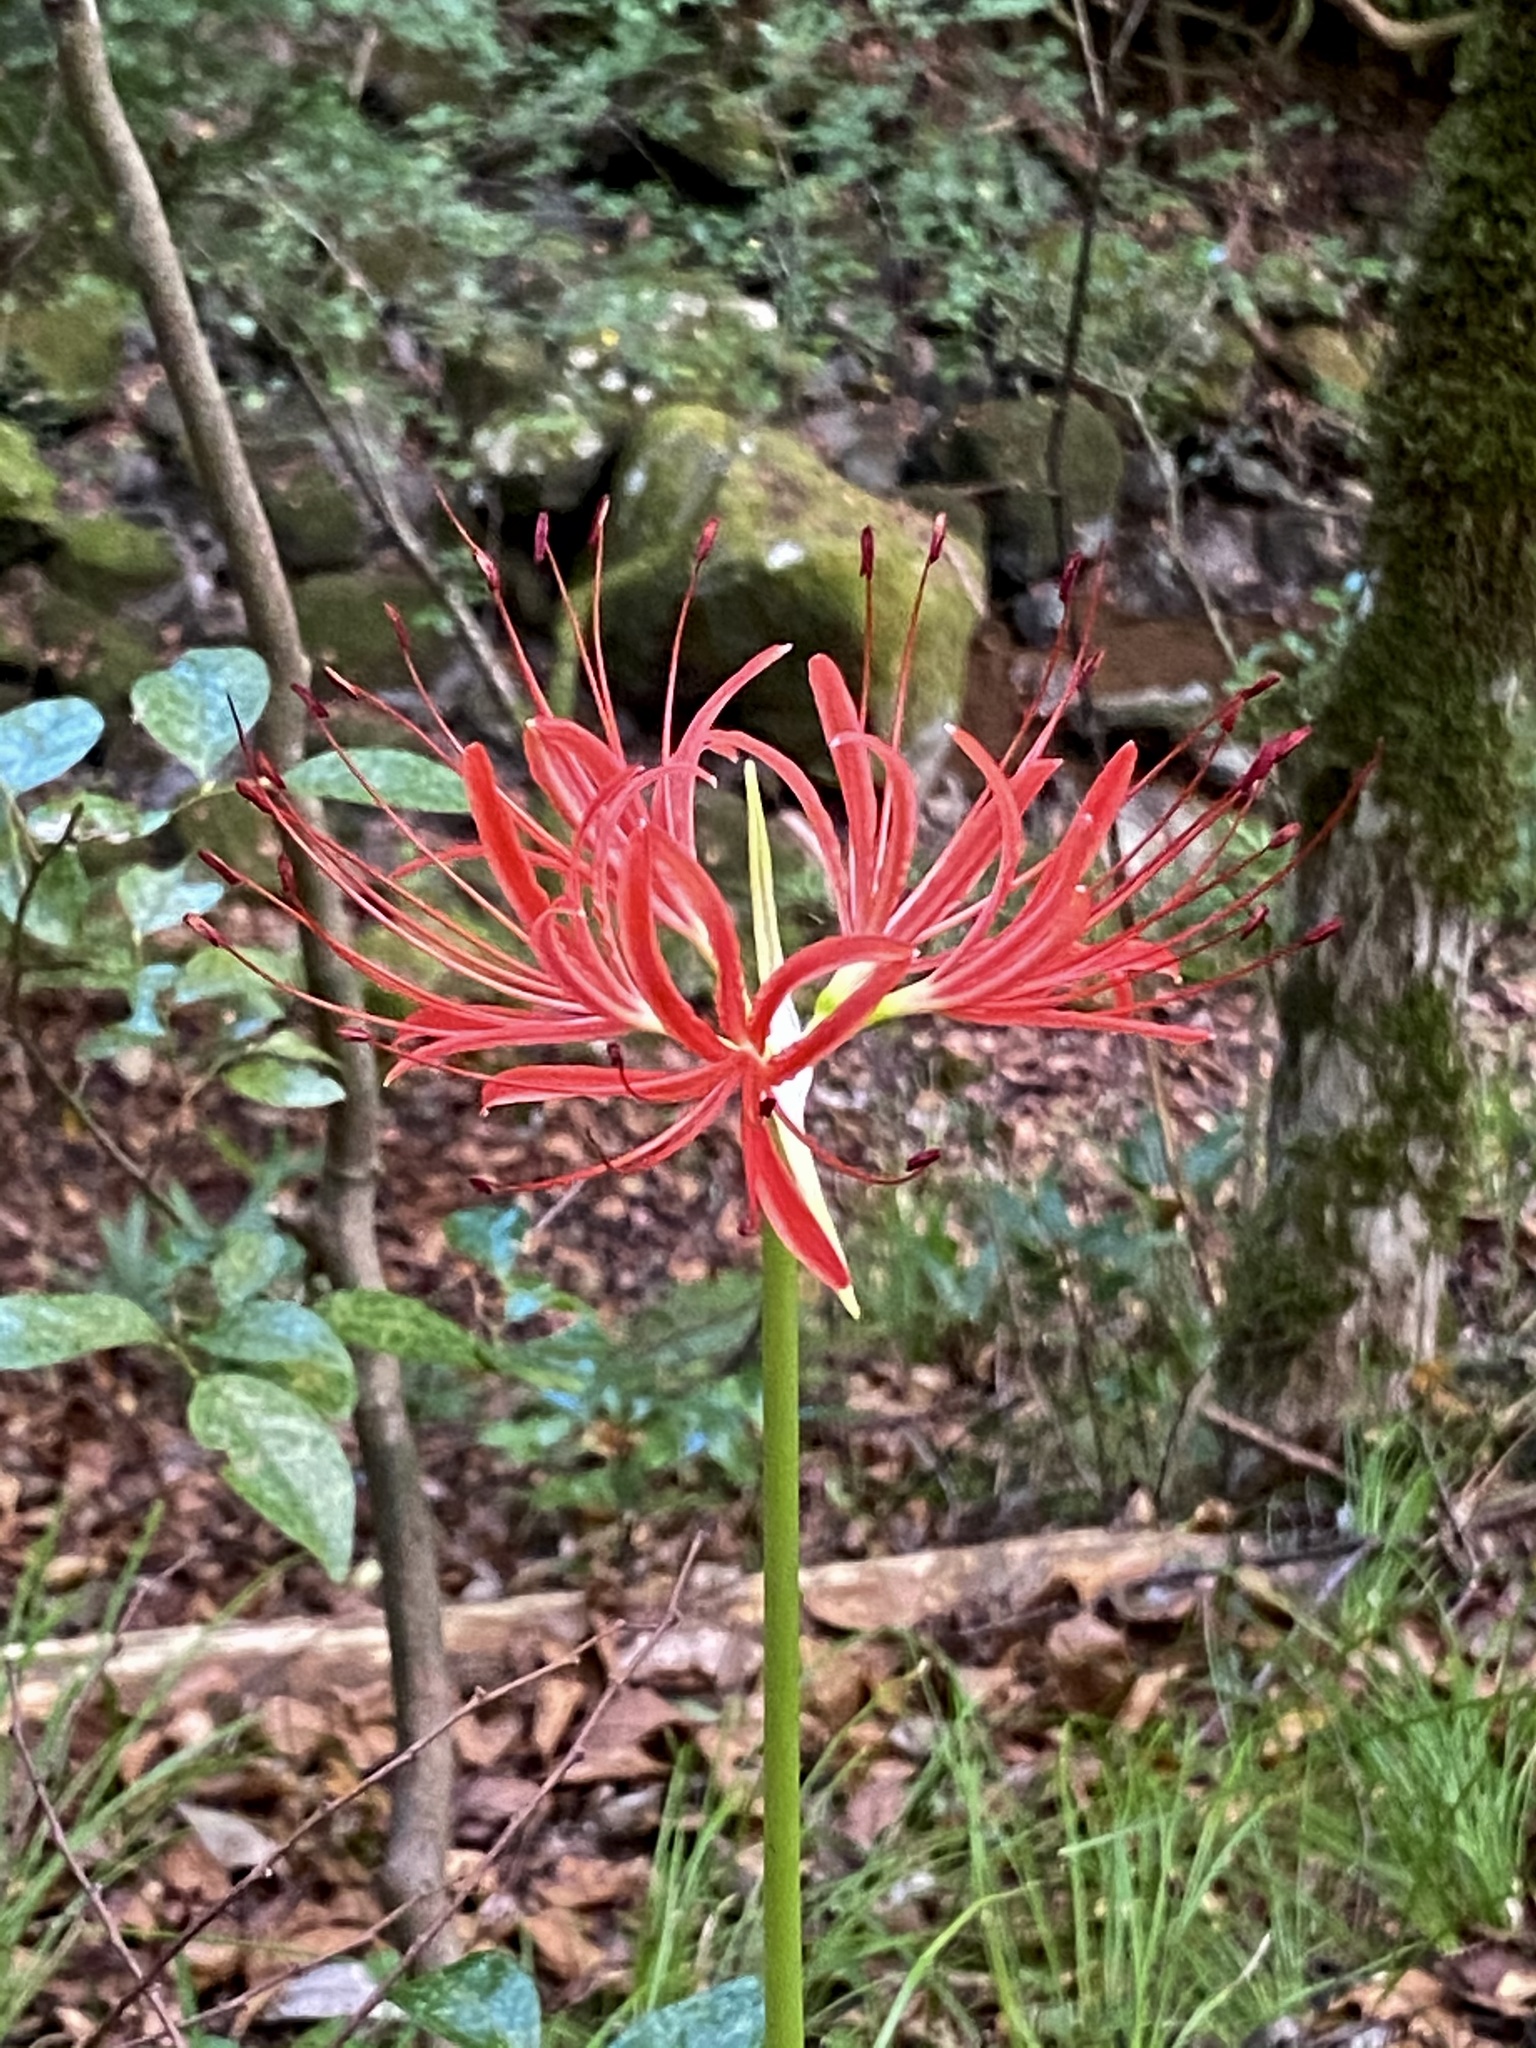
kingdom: Plantae
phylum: Tracheophyta
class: Liliopsida
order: Asparagales
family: Amaryllidaceae
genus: Lycoris
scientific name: Lycoris radiata
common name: Red spider lily
